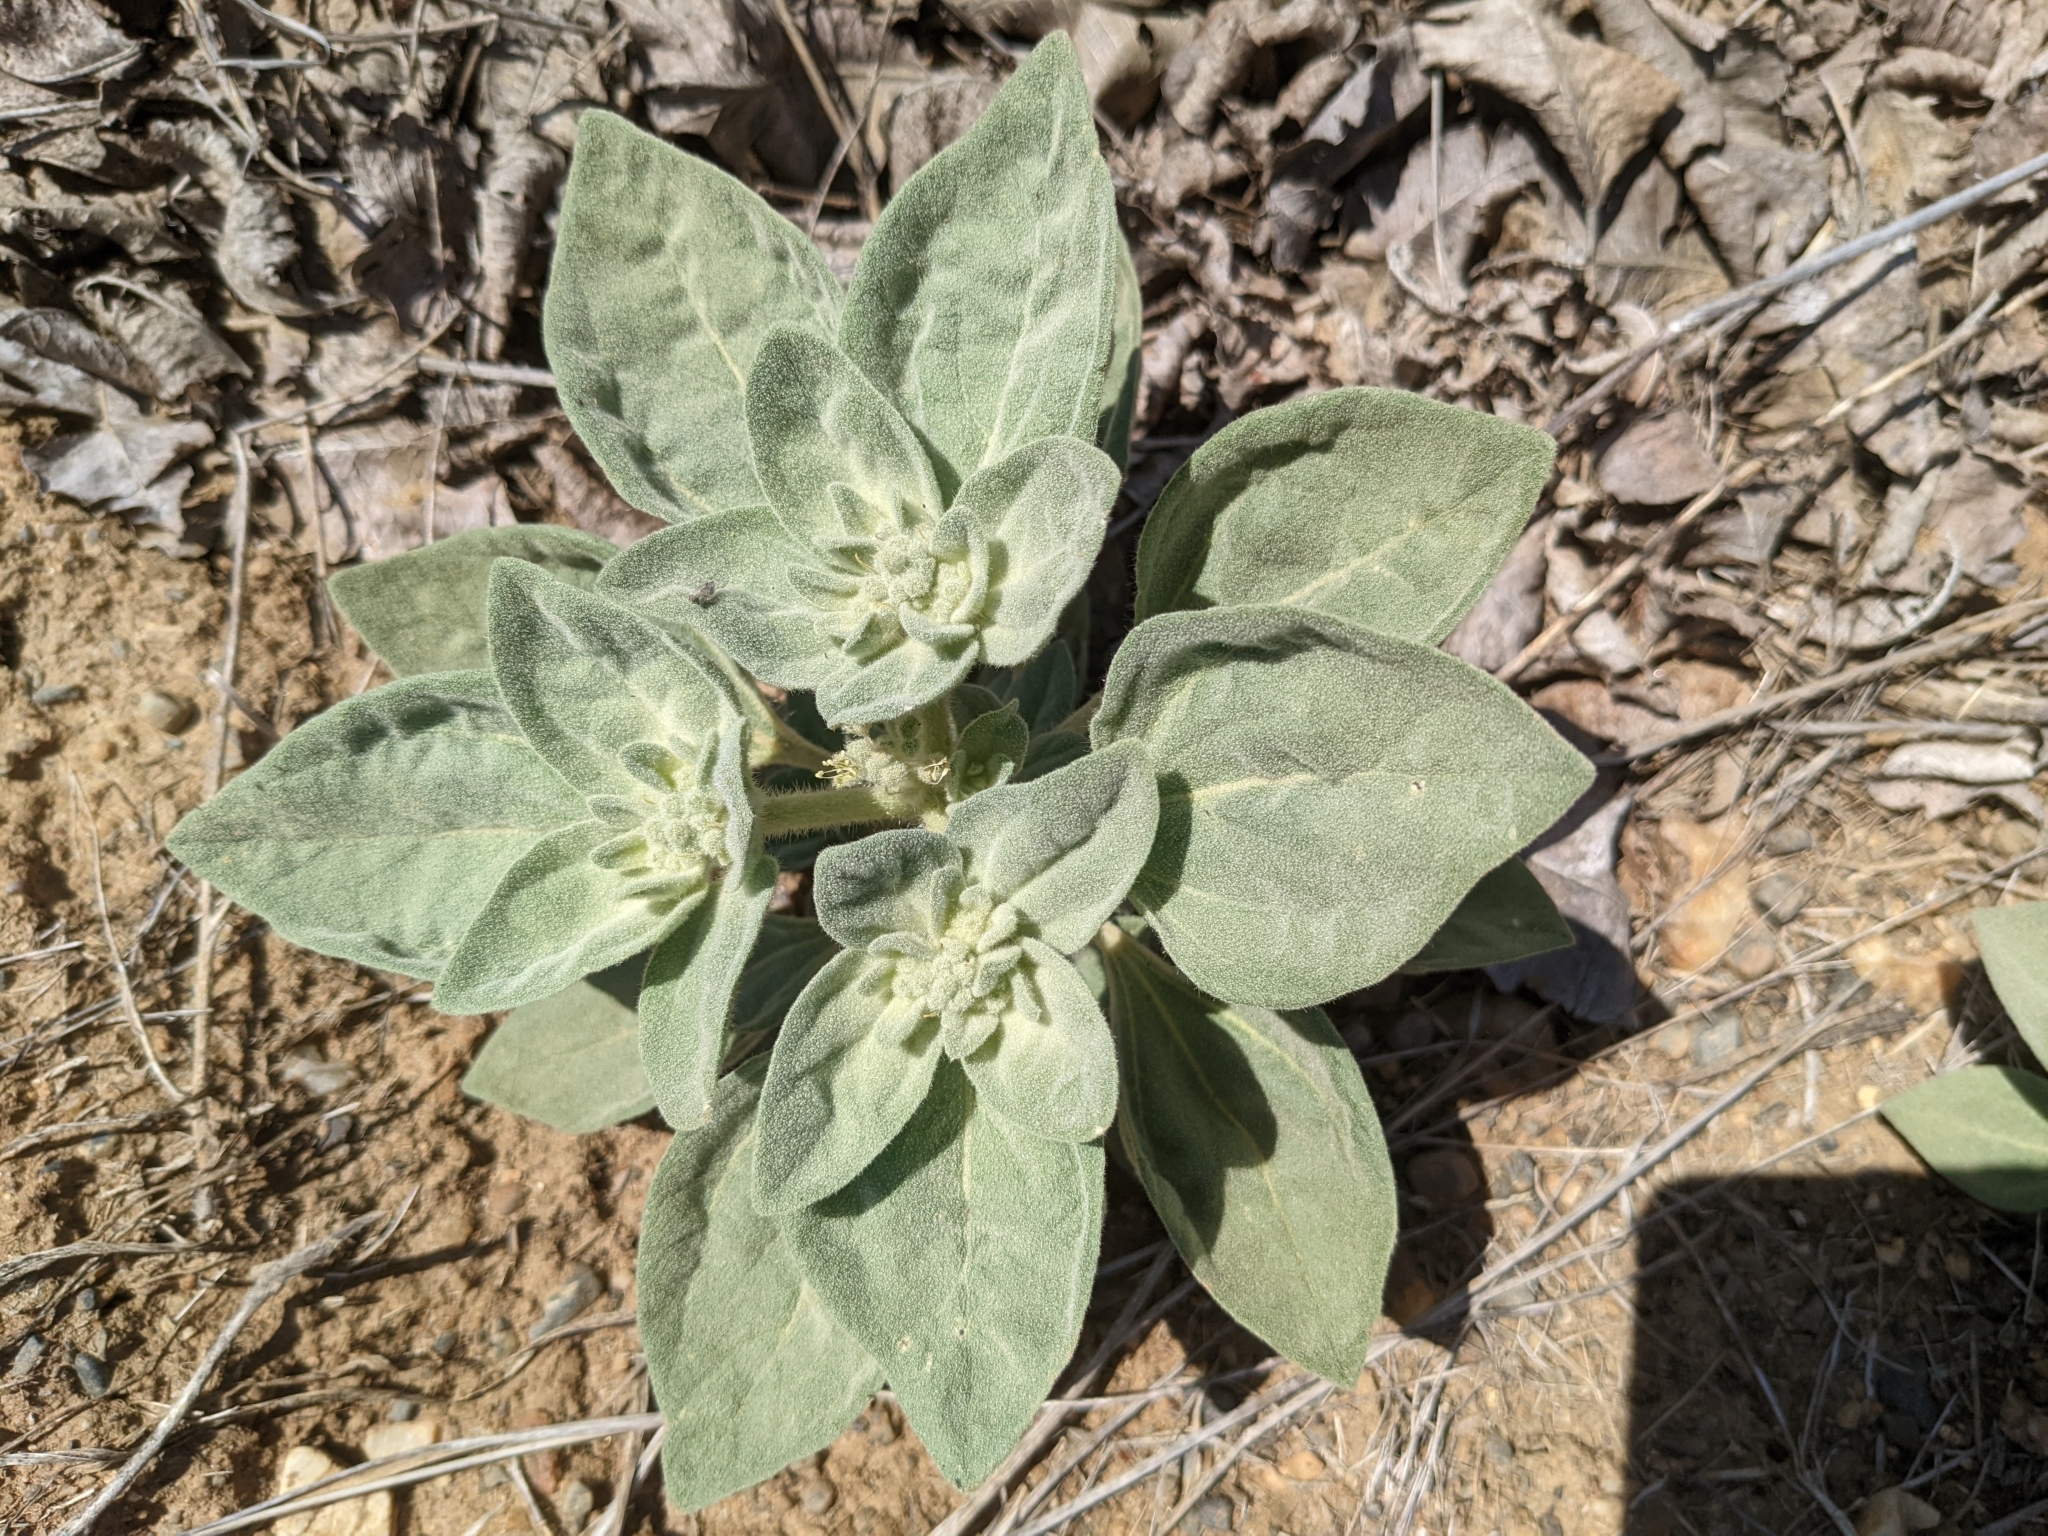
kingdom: Plantae
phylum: Tracheophyta
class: Magnoliopsida
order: Malpighiales
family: Euphorbiaceae
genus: Croton
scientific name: Croton setiger
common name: Dove weed
